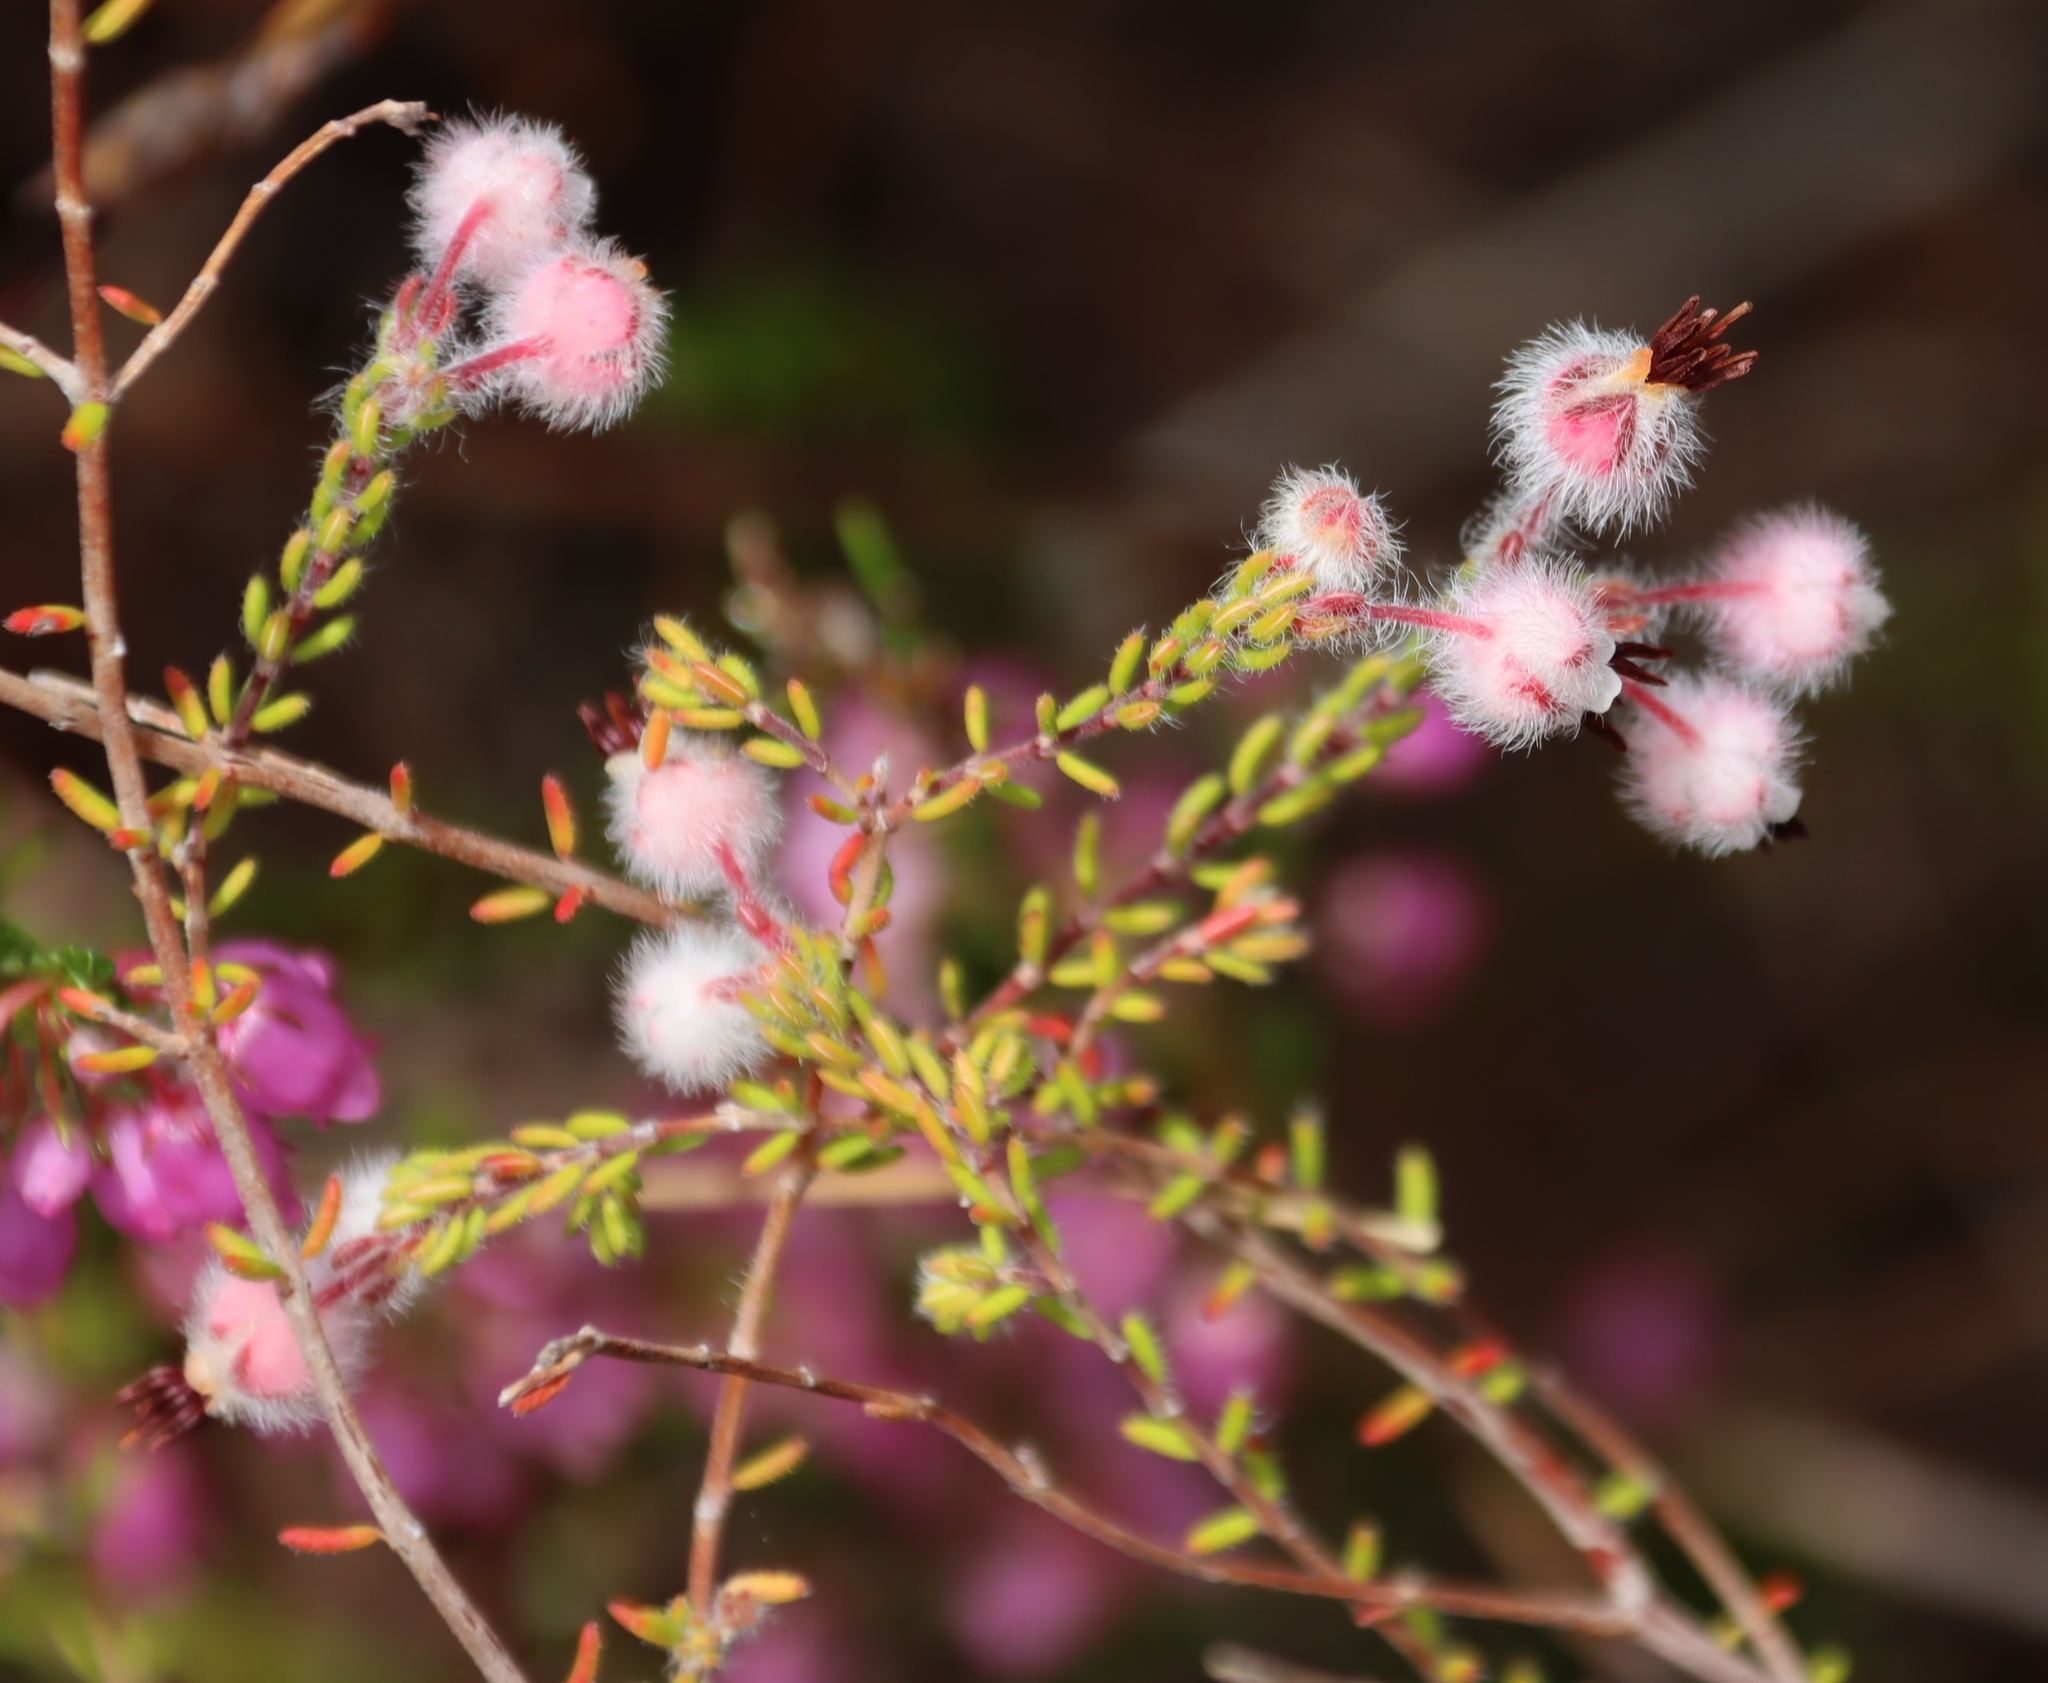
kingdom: Plantae
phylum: Tracheophyta
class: Magnoliopsida
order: Ericales
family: Ericaceae
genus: Erica
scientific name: Erica bruniades
